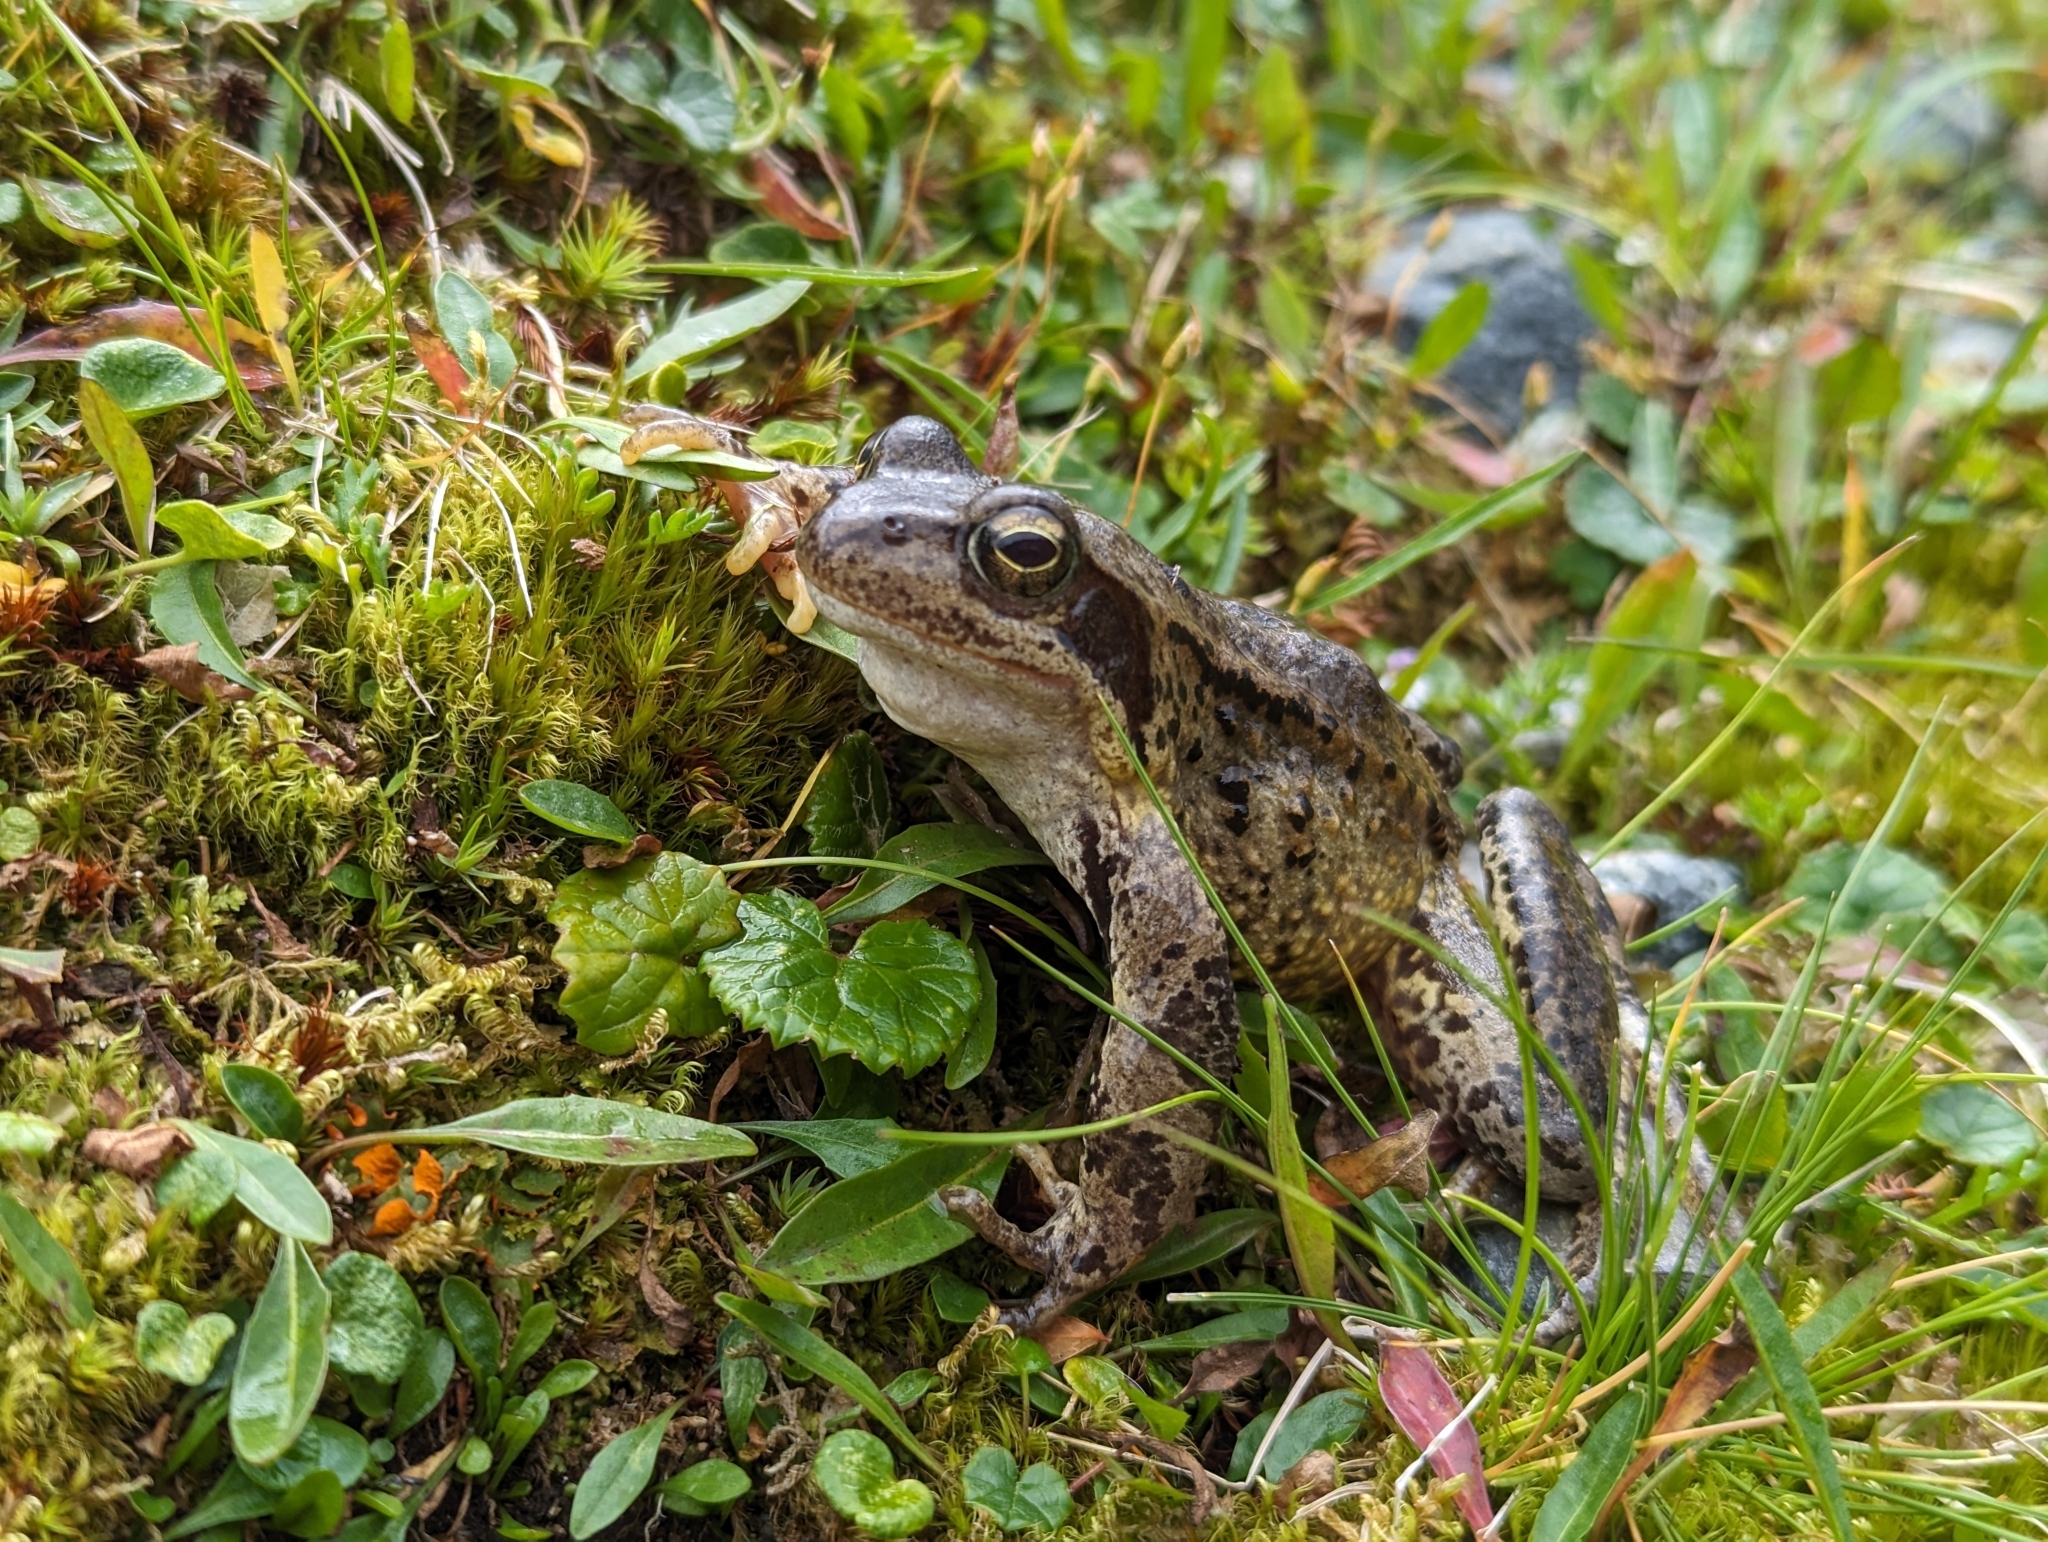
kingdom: Animalia
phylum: Chordata
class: Amphibia
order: Anura
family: Ranidae
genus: Rana
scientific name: Rana temporaria
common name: Common frog
